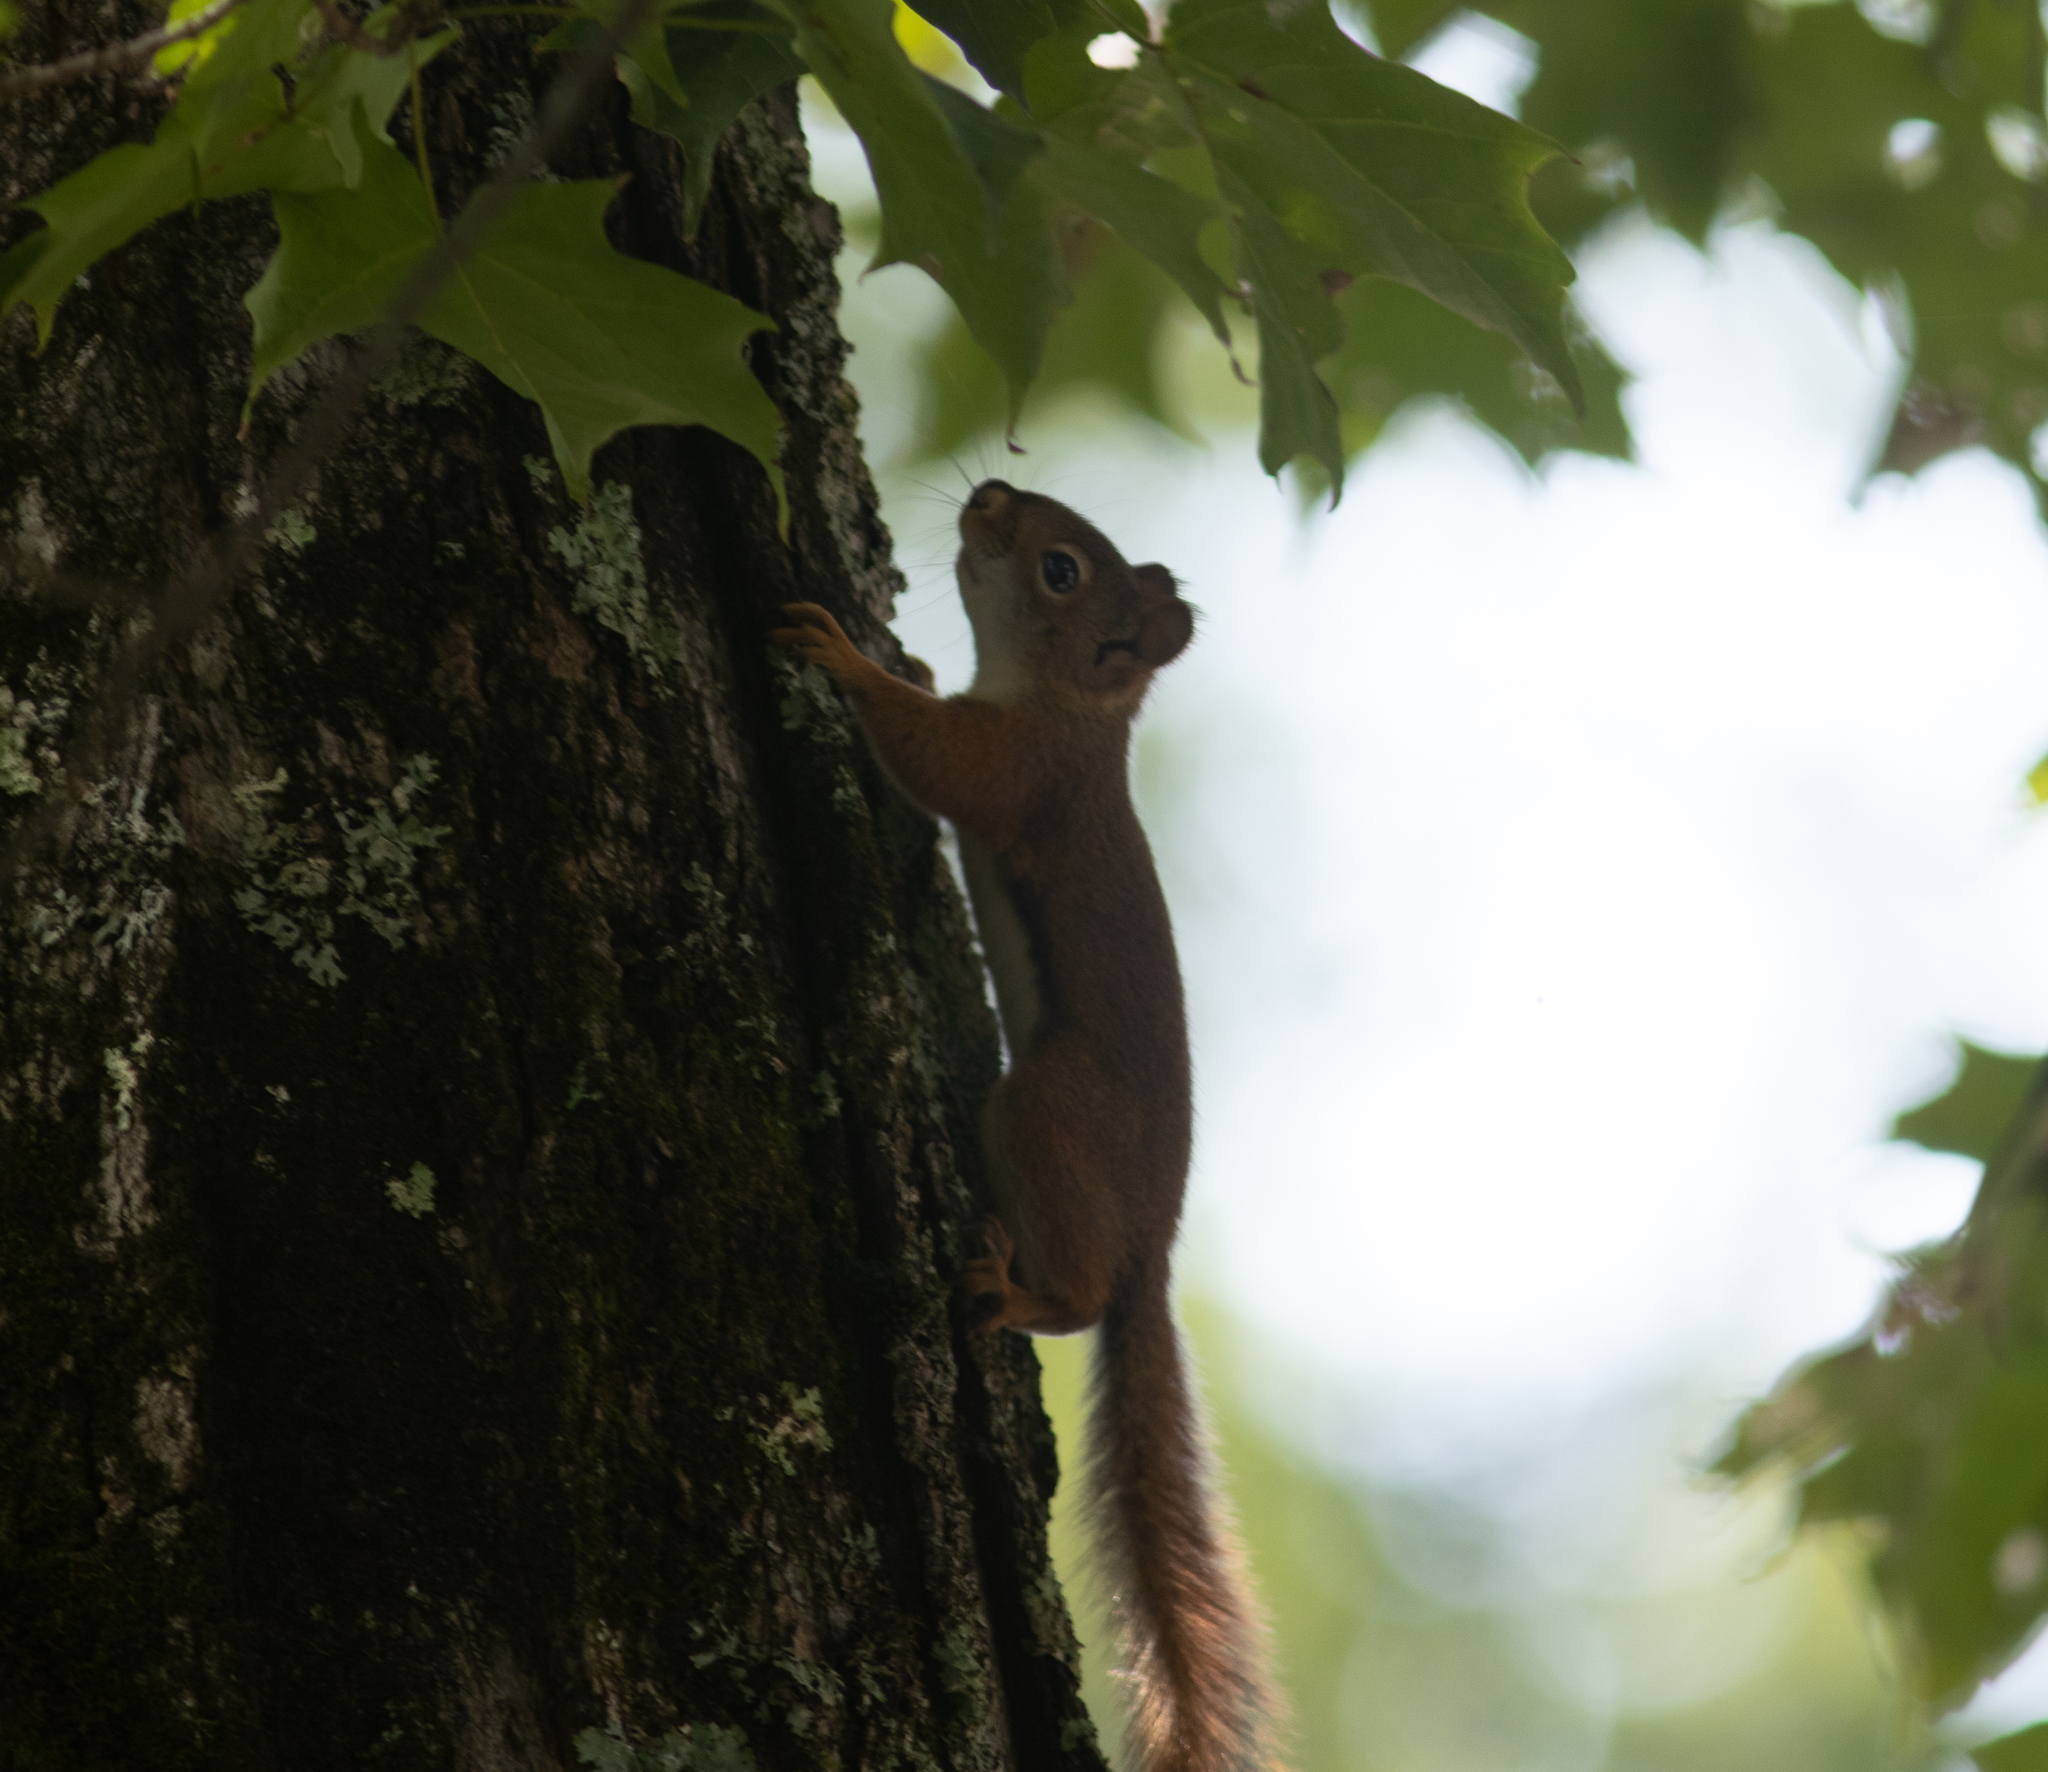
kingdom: Animalia
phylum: Chordata
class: Mammalia
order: Rodentia
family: Sciuridae
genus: Tamiasciurus
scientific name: Tamiasciurus hudsonicus
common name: Red squirrel
